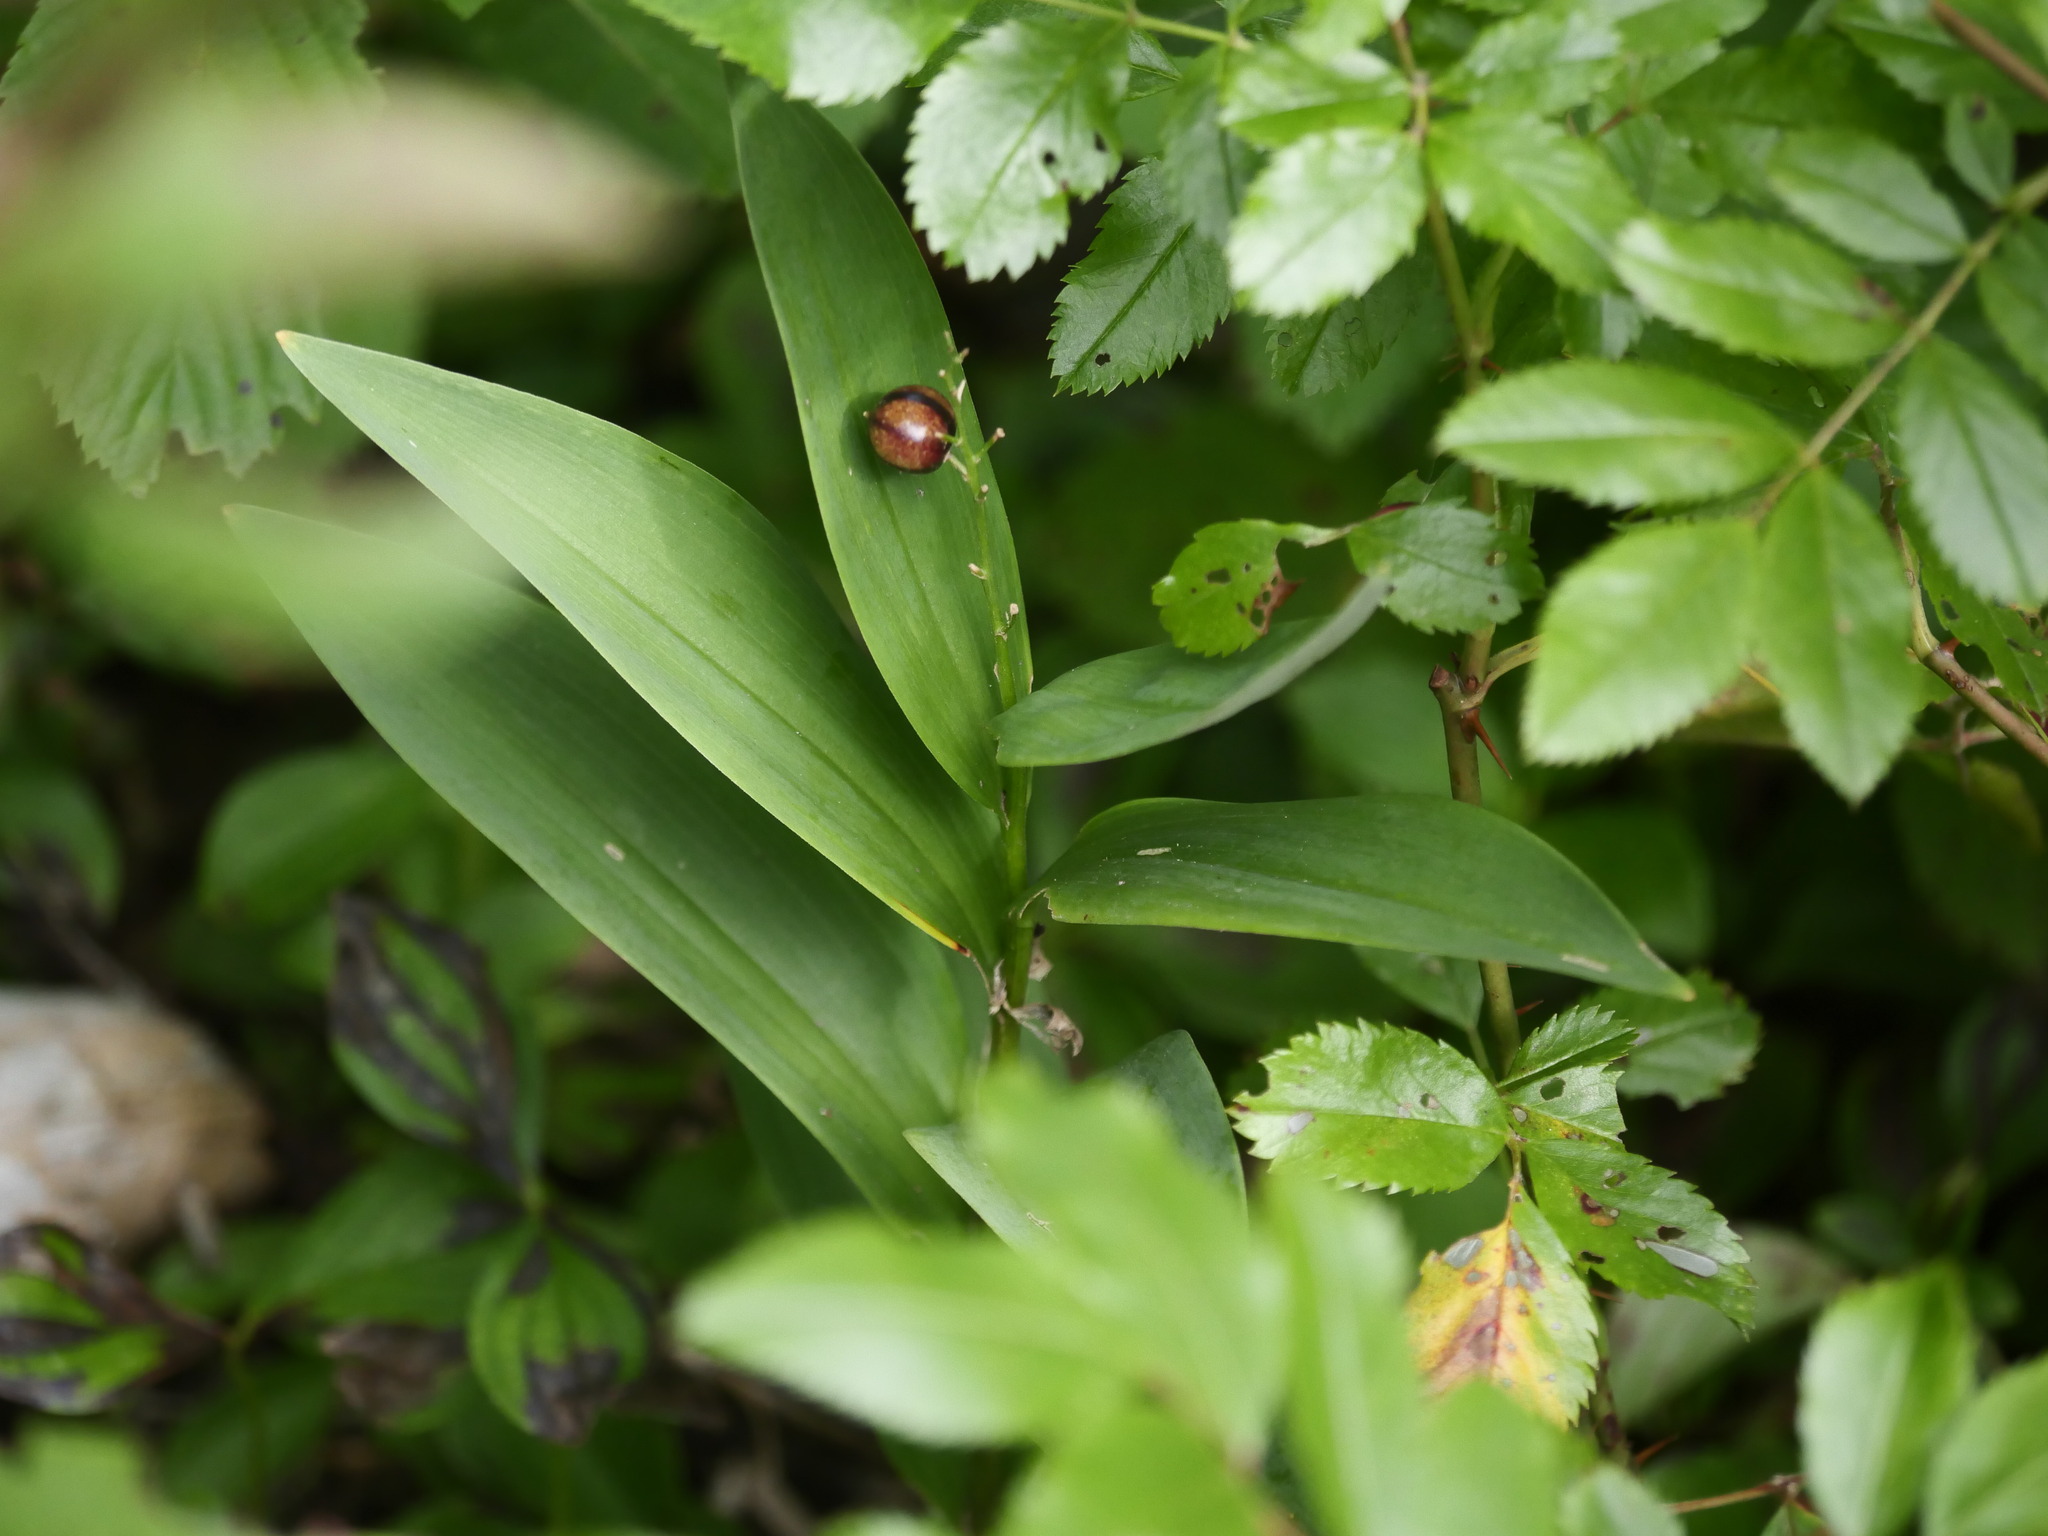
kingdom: Plantae
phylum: Tracheophyta
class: Liliopsida
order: Asparagales
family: Asparagaceae
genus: Maianthemum
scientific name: Maianthemum stellatum
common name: Little false solomon's seal
